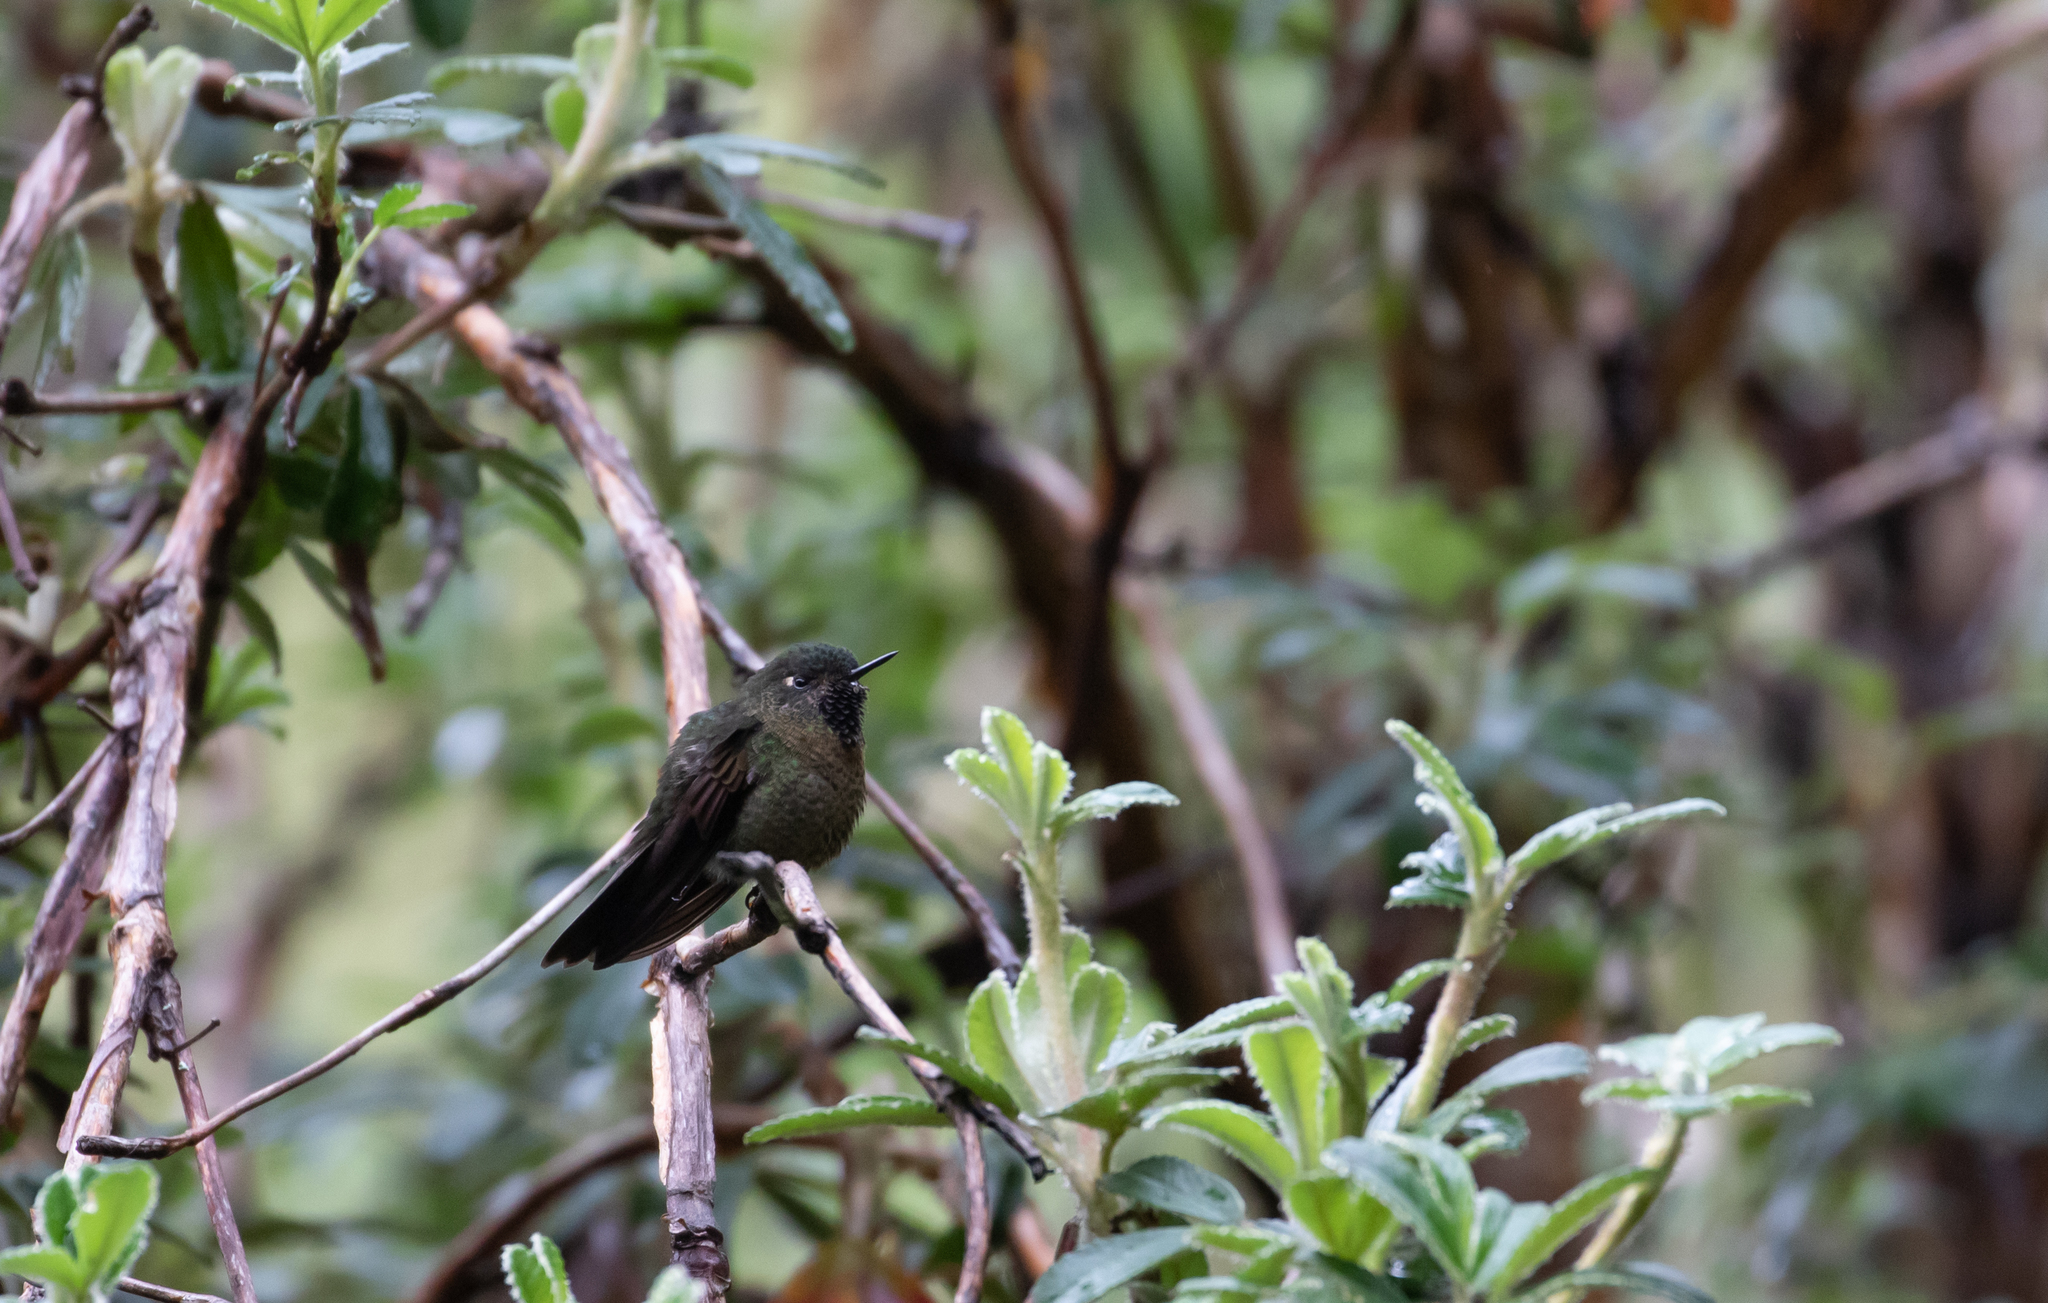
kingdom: Animalia
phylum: Chordata
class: Aves
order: Apodiformes
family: Trochilidae
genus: Metallura
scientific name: Metallura tyrianthina
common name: Tyrian metaltail
